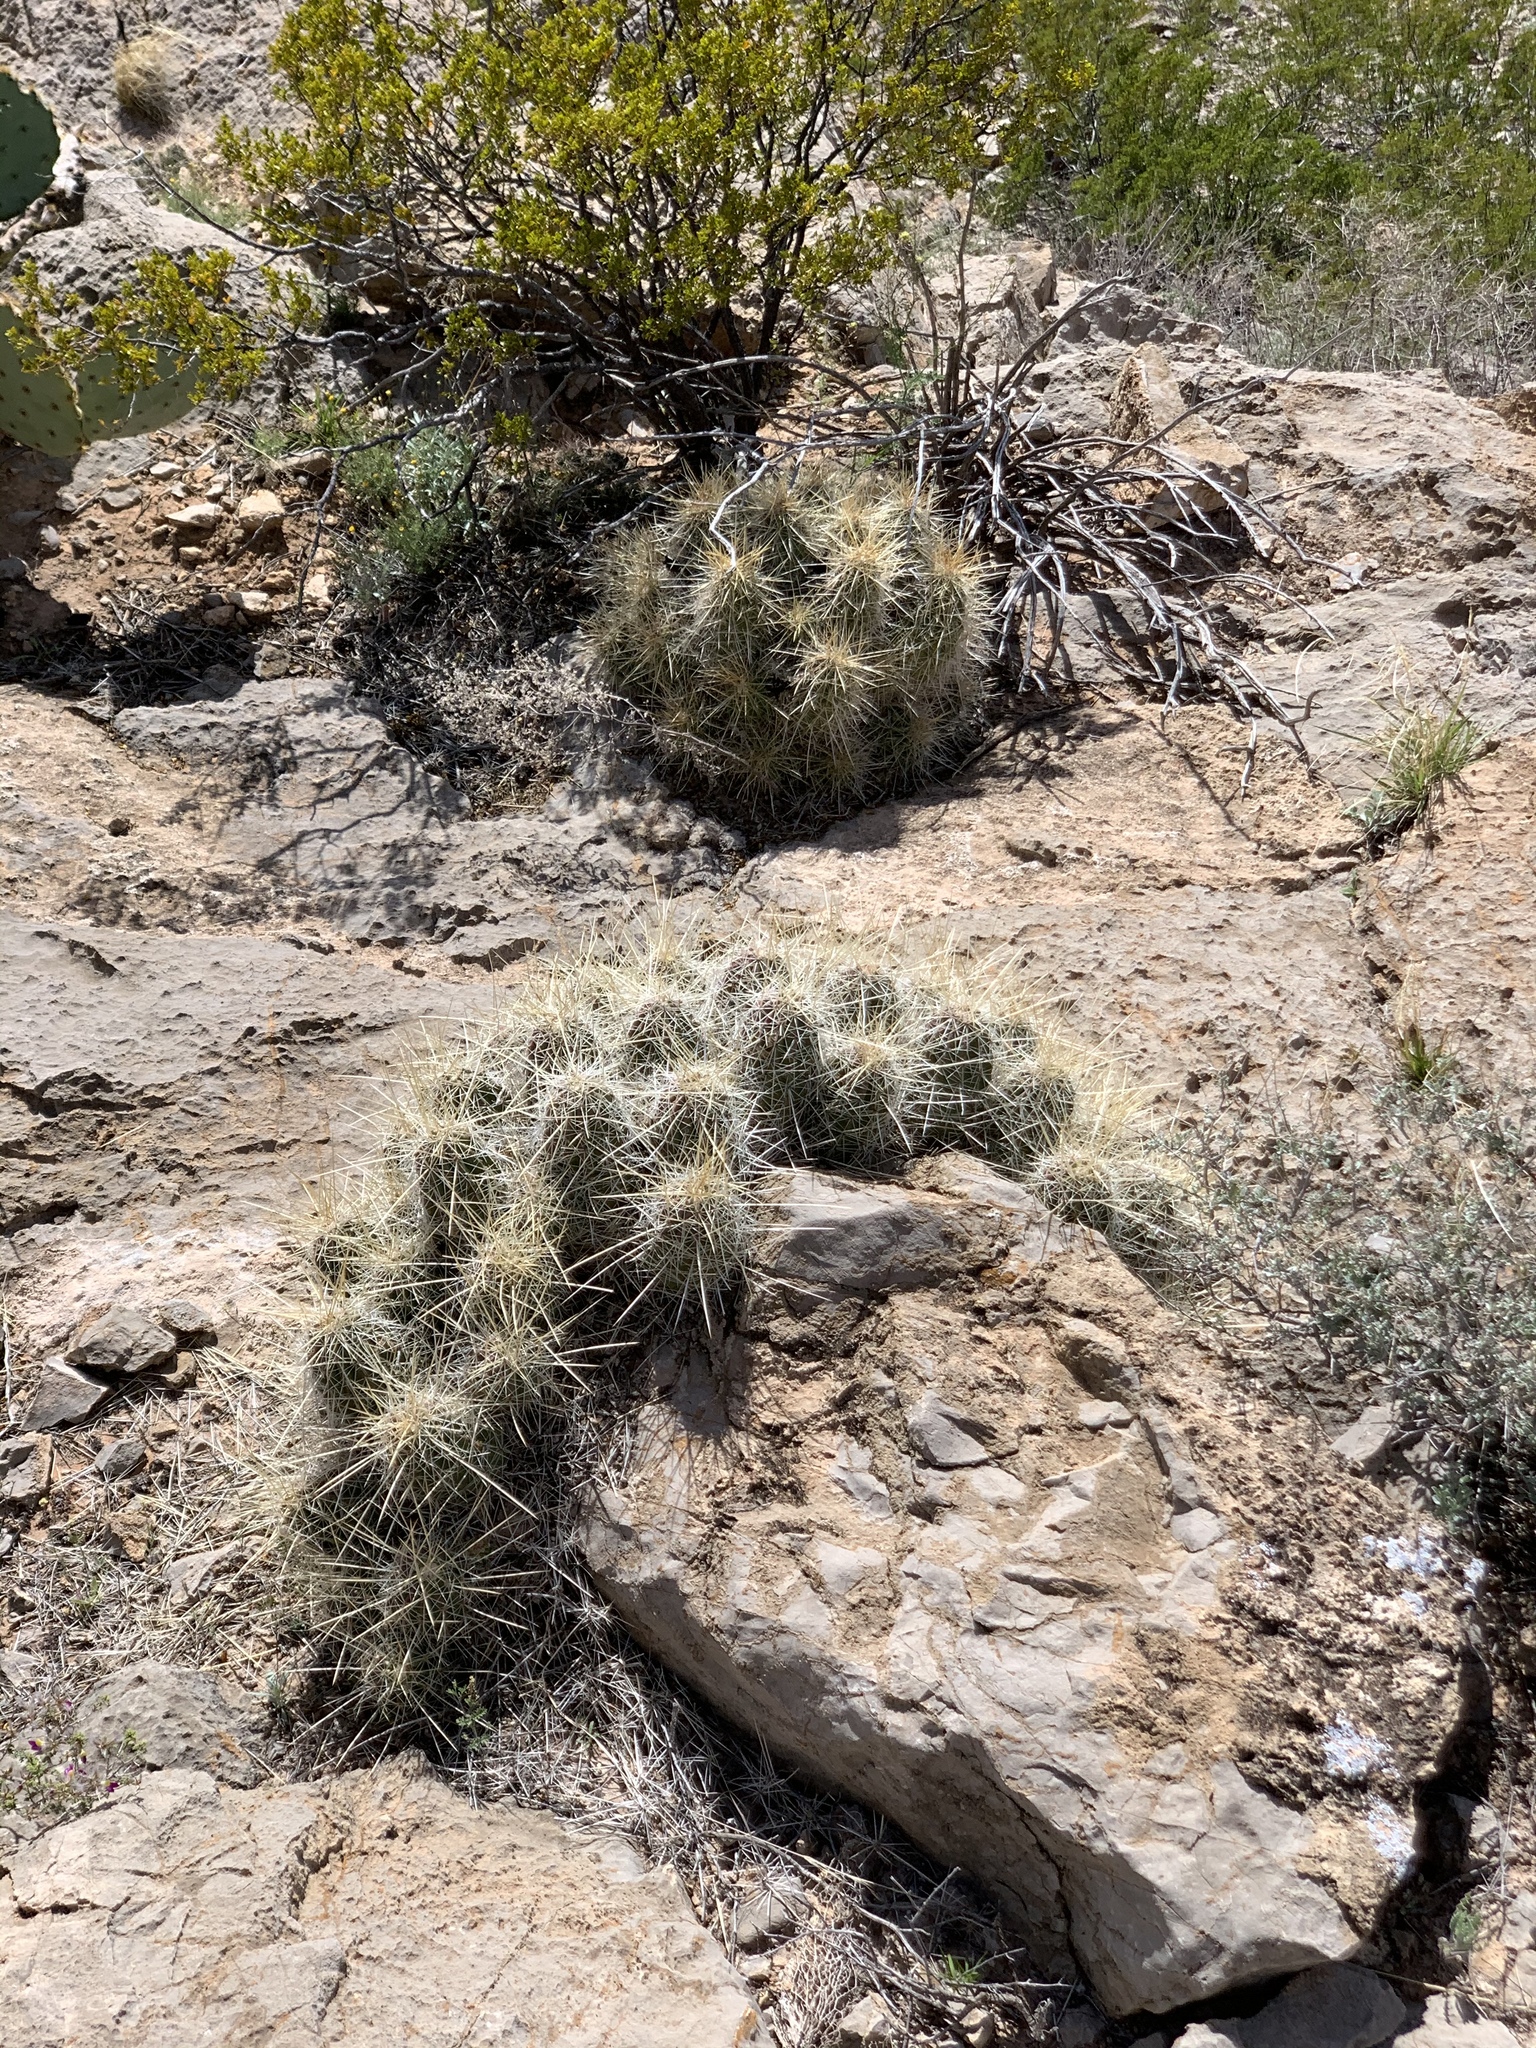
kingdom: Plantae
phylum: Tracheophyta
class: Magnoliopsida
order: Caryophyllales
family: Cactaceae
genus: Echinocereus
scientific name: Echinocereus stramineus
